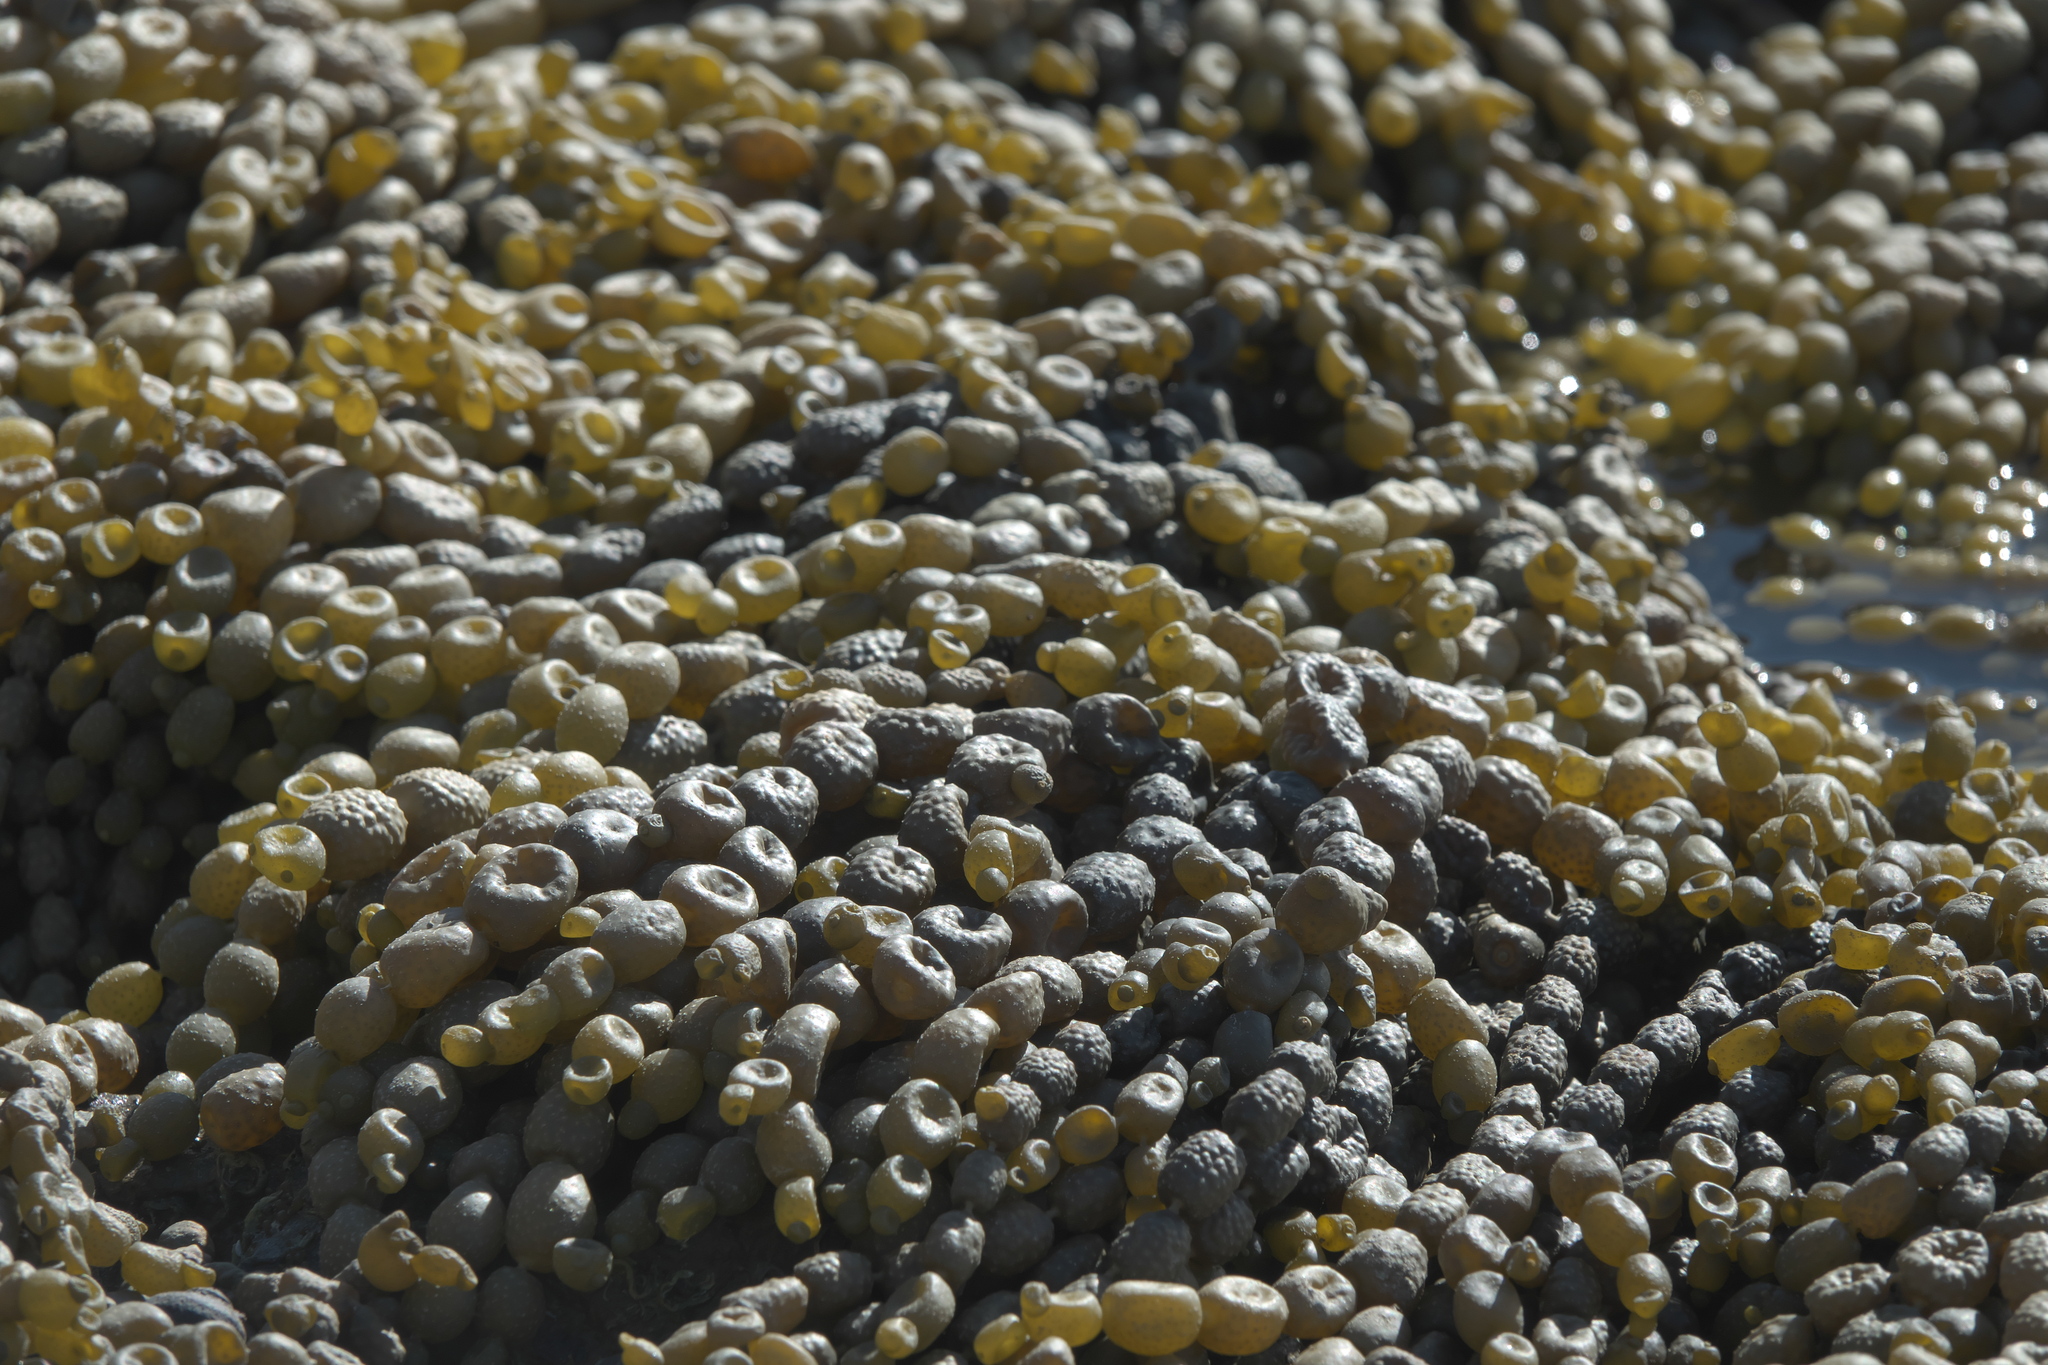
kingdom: Chromista
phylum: Ochrophyta
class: Phaeophyceae
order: Fucales
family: Hormosiraceae
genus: Hormosira
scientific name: Hormosira banksii
